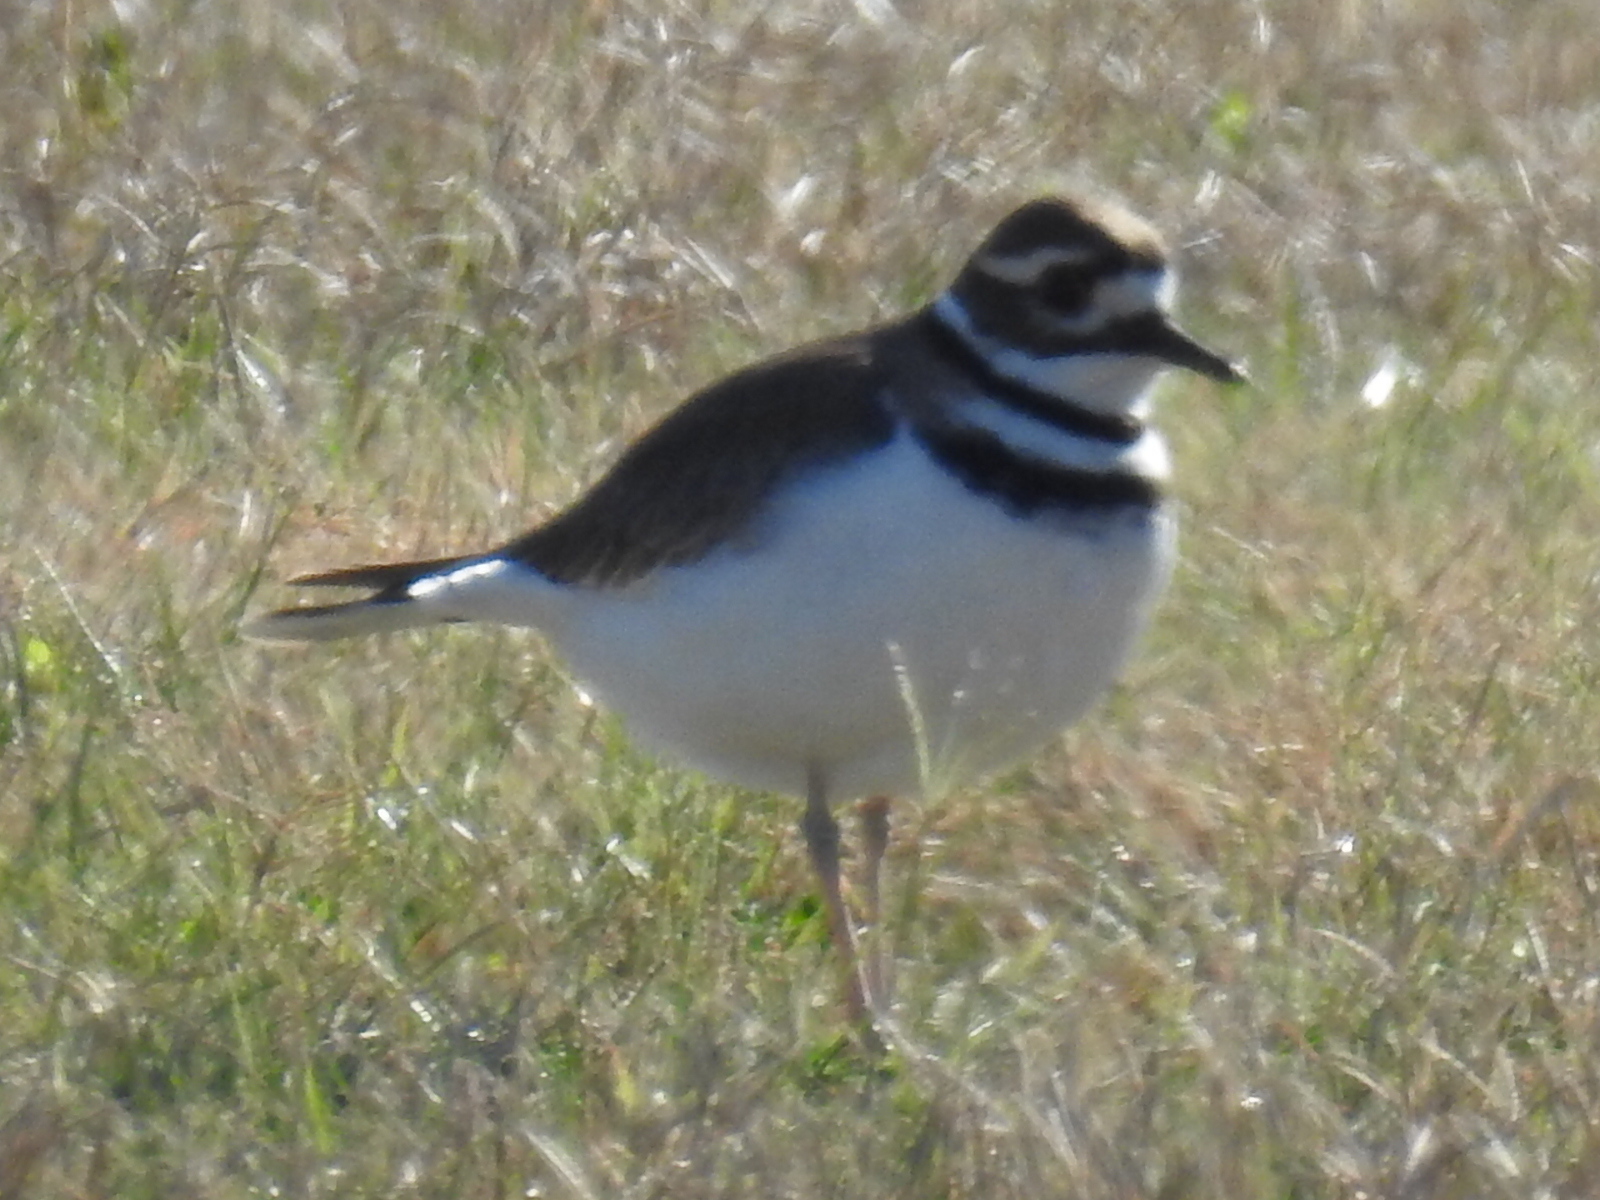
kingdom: Animalia
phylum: Chordata
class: Aves
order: Charadriiformes
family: Charadriidae
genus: Charadrius
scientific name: Charadrius vociferus
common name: Killdeer
